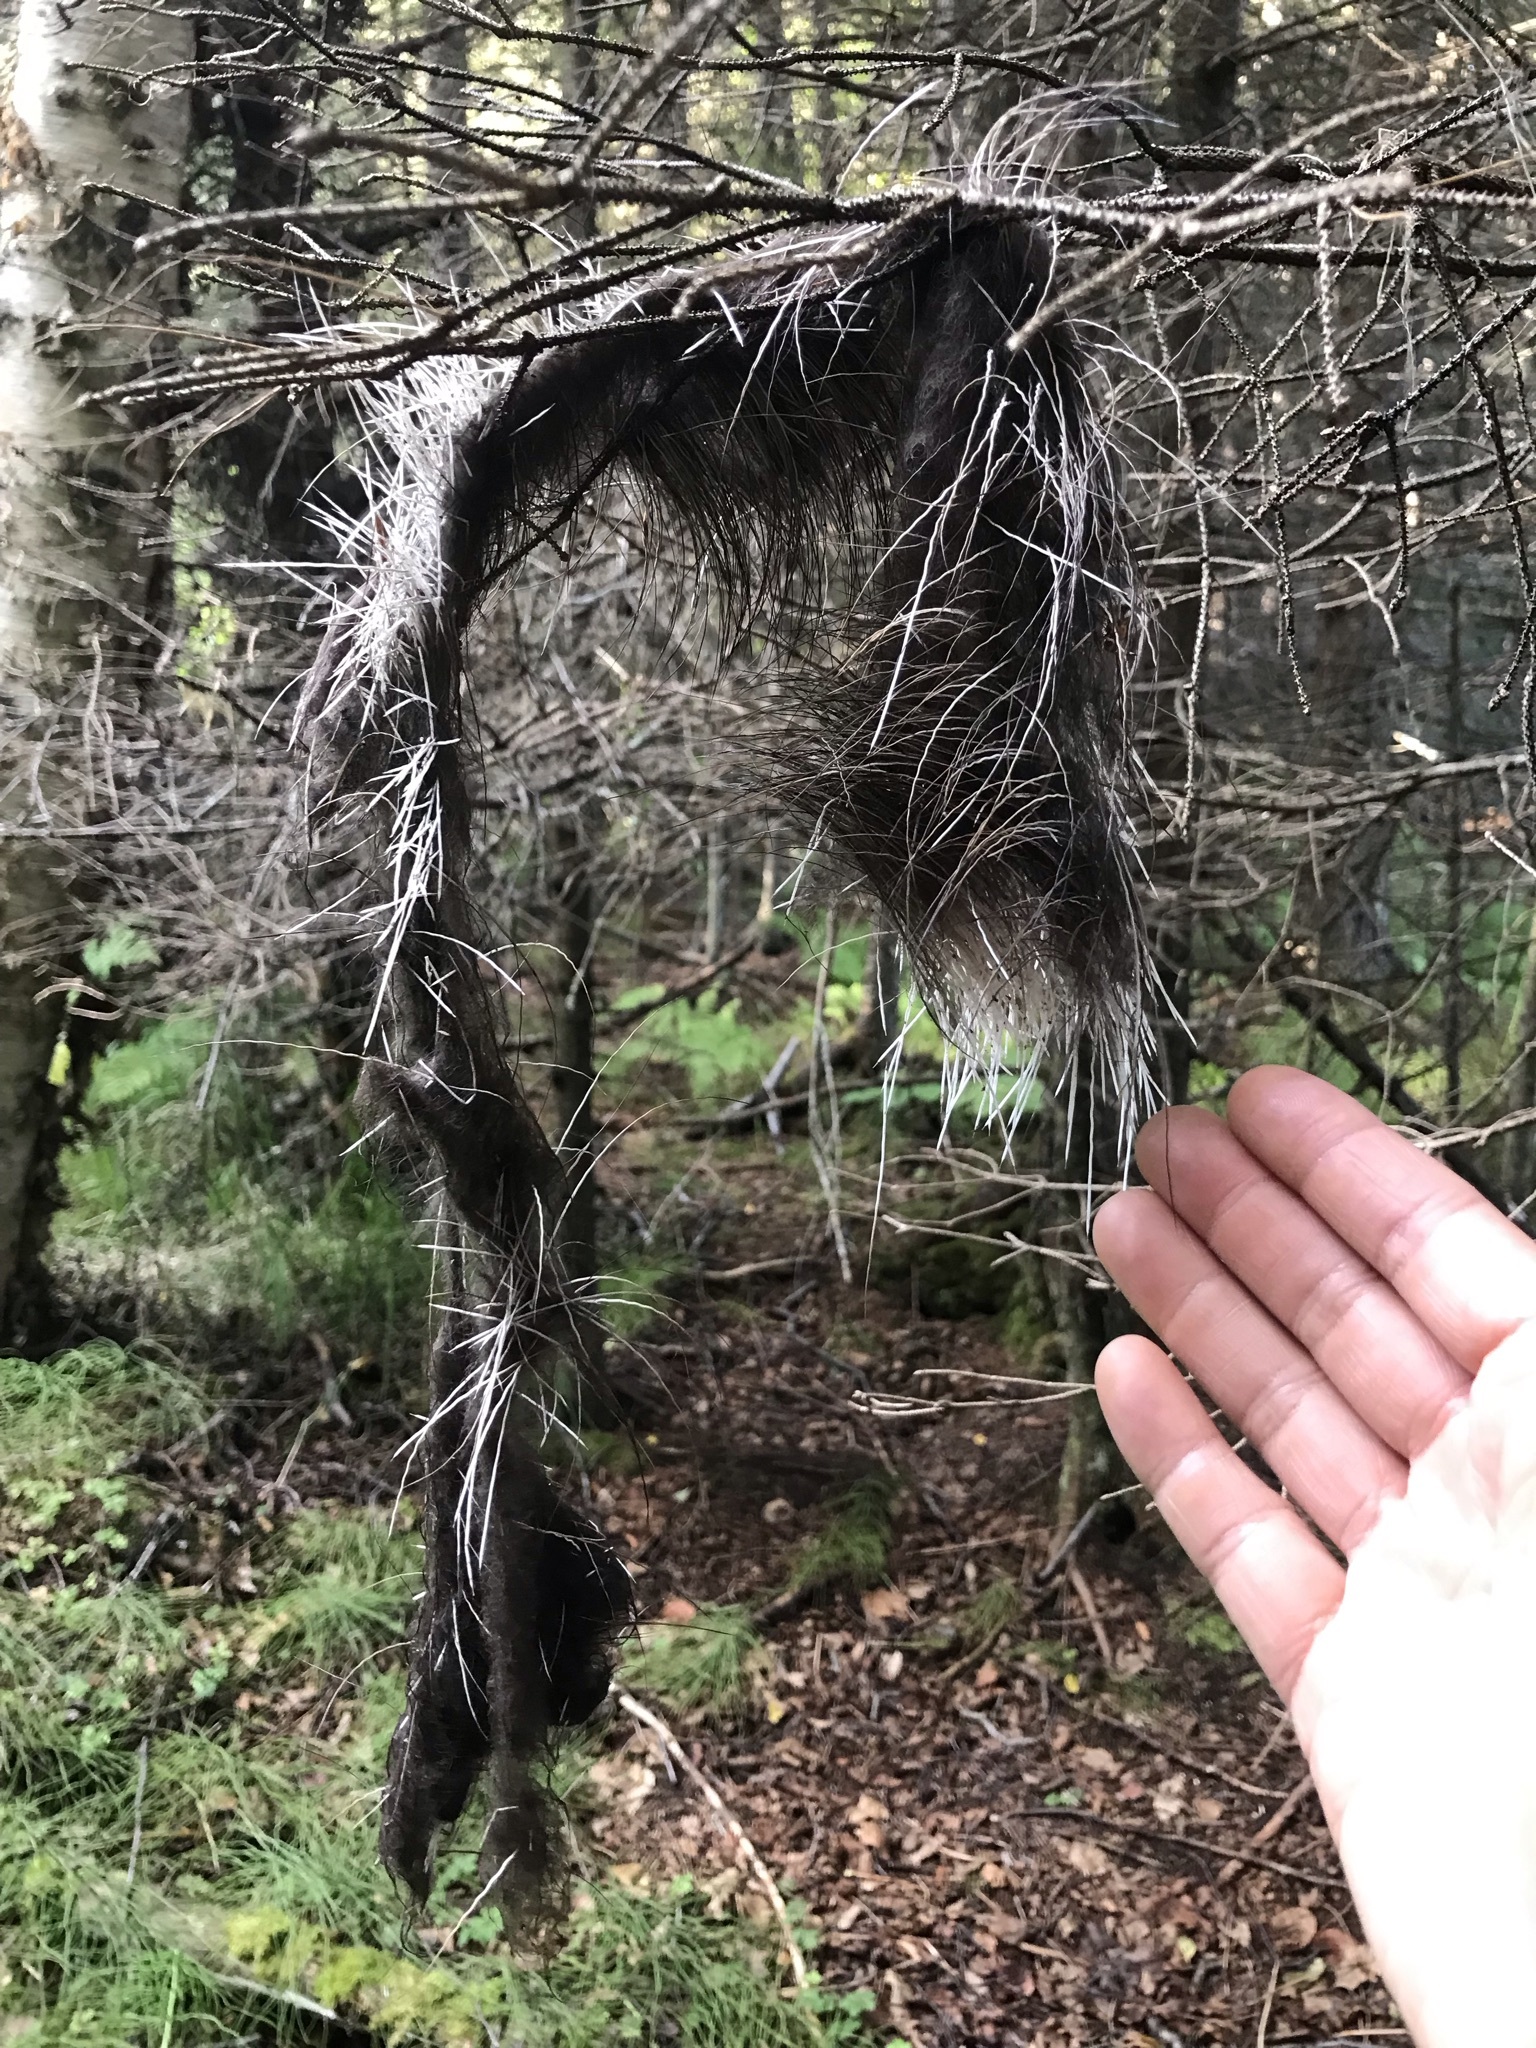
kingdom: Animalia
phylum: Chordata
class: Mammalia
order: Rodentia
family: Erethizontidae
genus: Erethizon
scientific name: Erethizon dorsatus
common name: North american porcupine
